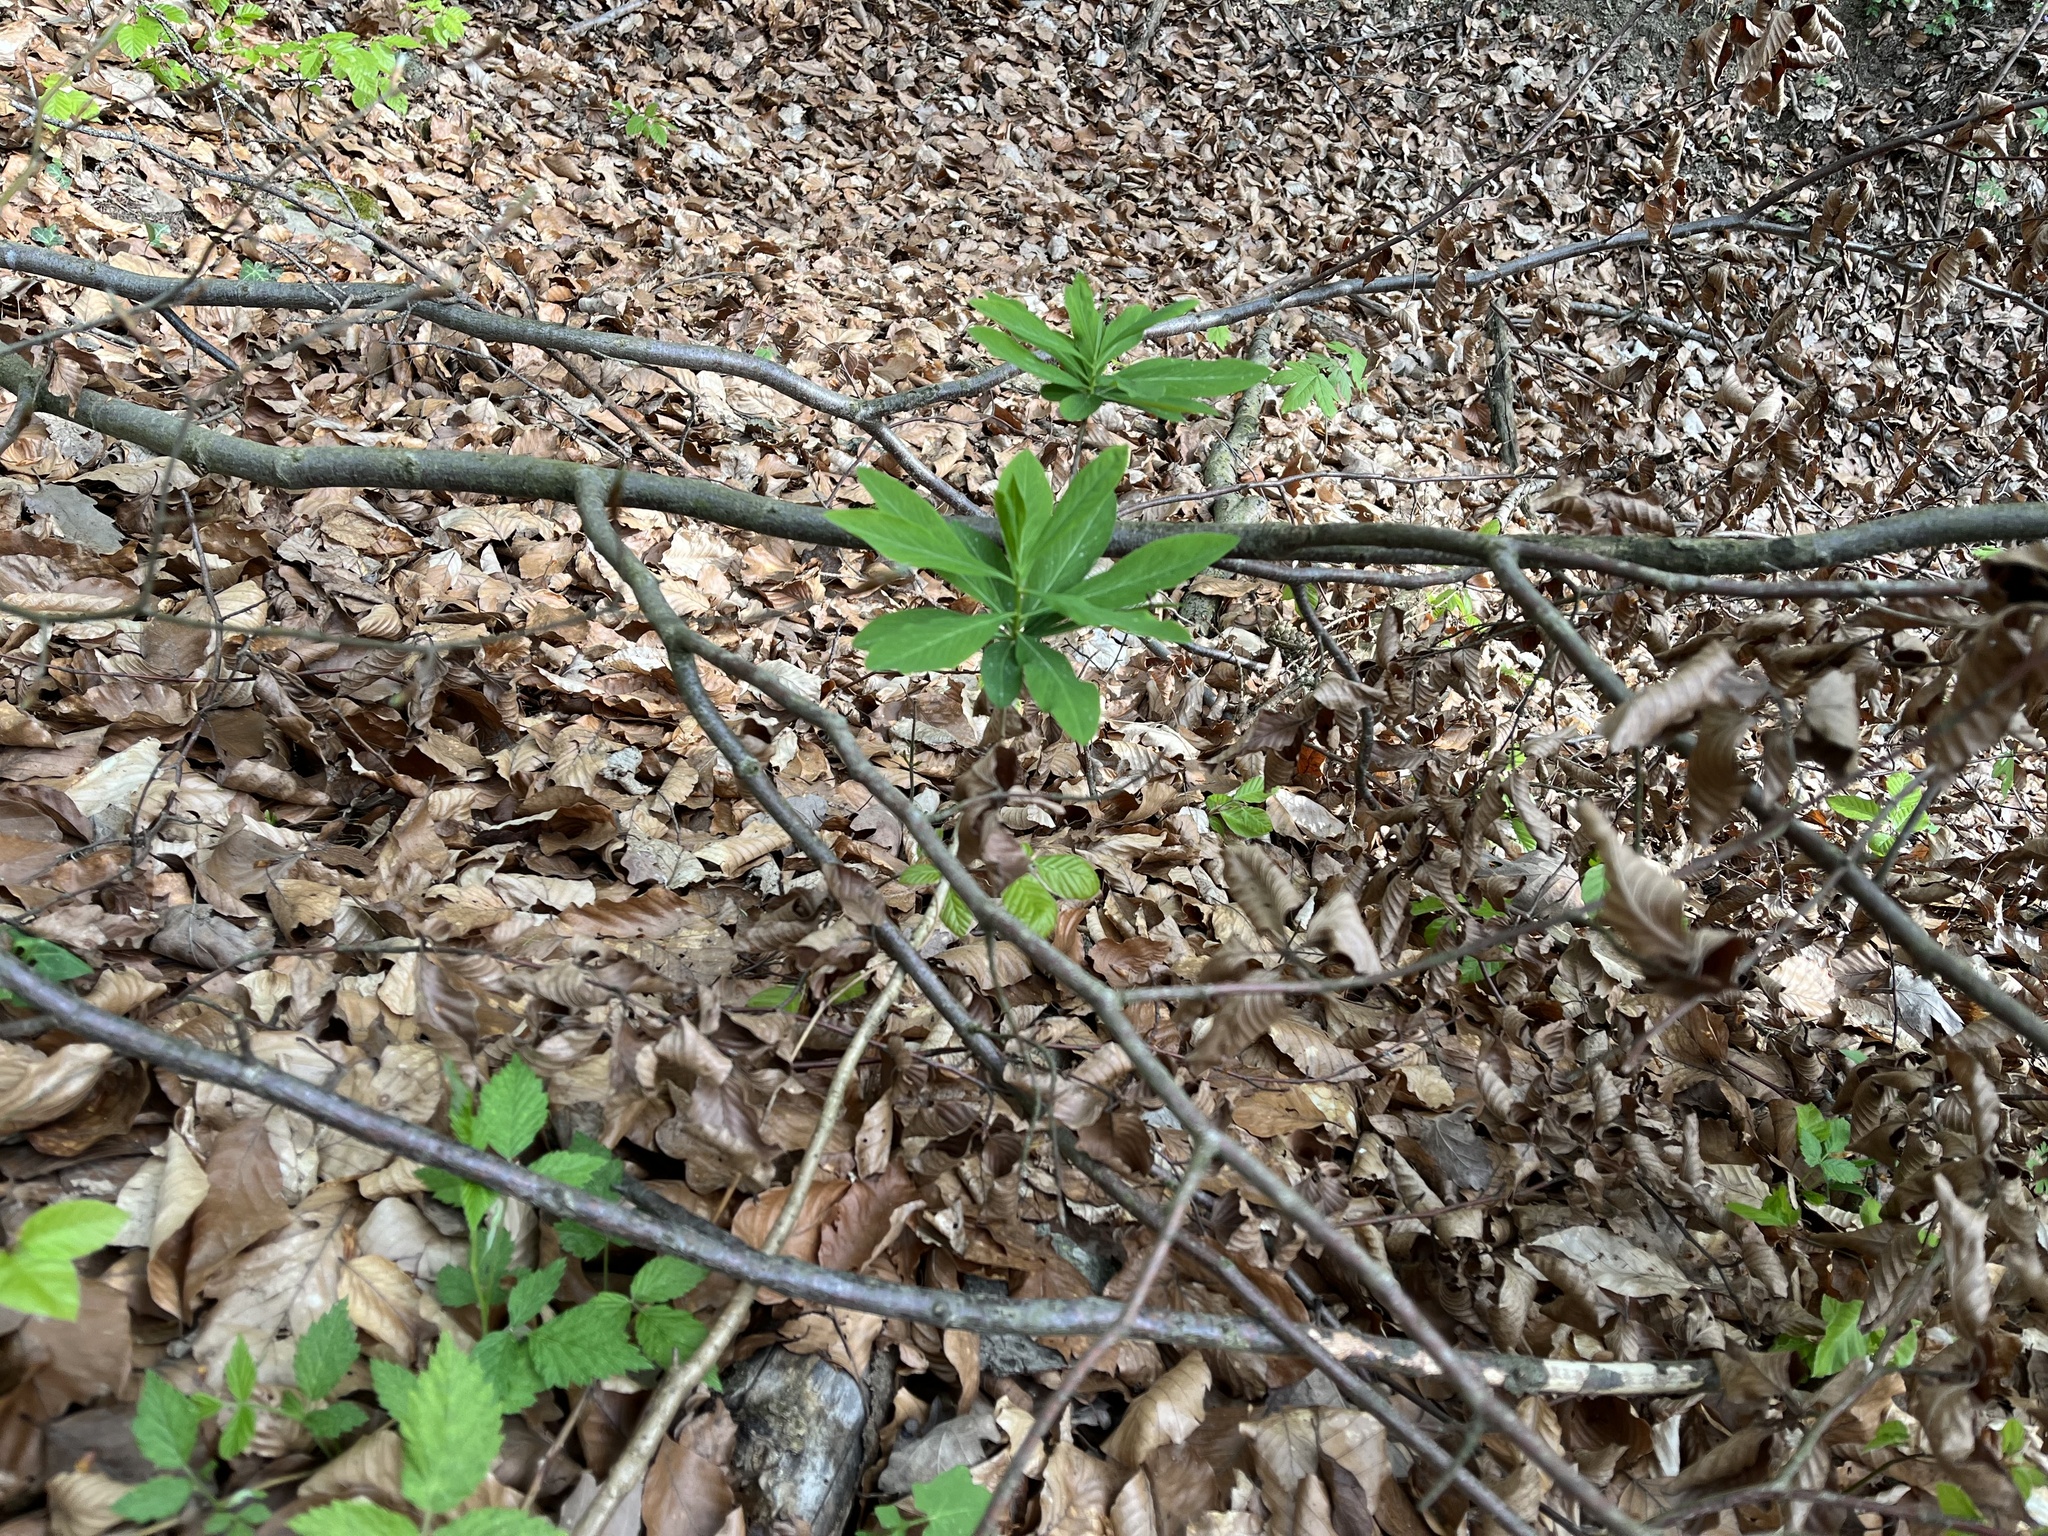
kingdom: Plantae
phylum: Tracheophyta
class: Magnoliopsida
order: Malvales
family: Thymelaeaceae
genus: Daphne
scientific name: Daphne mezereum
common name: Mezereon
